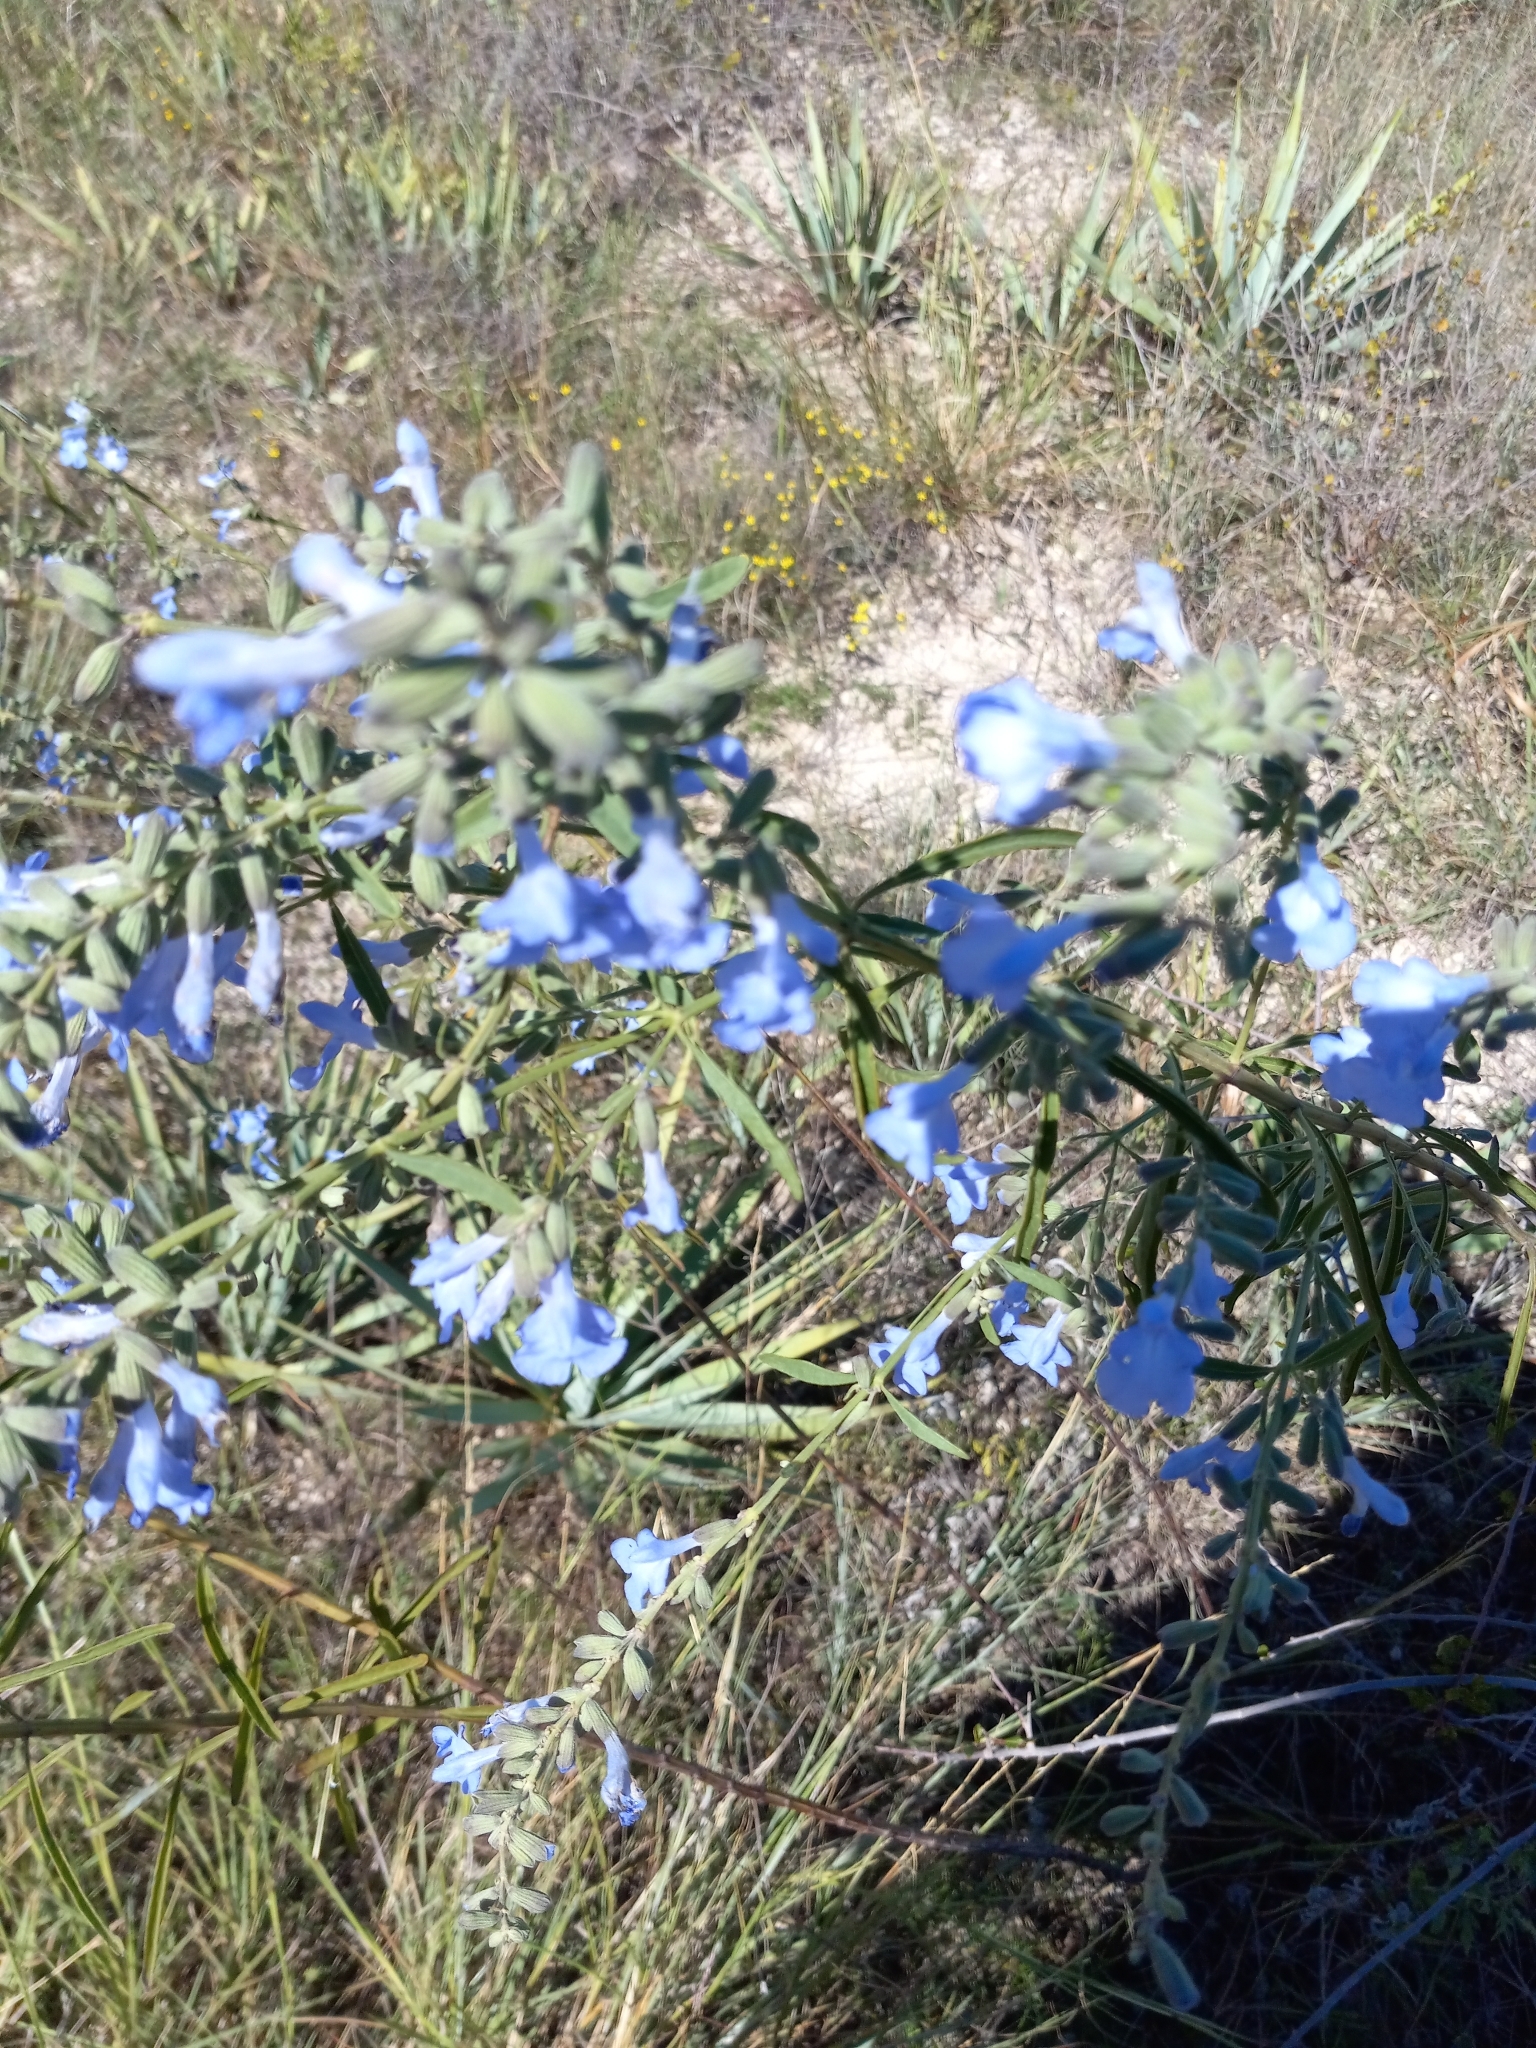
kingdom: Plantae
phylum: Tracheophyta
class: Magnoliopsida
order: Lamiales
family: Lamiaceae
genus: Salvia
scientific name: Salvia azurea
